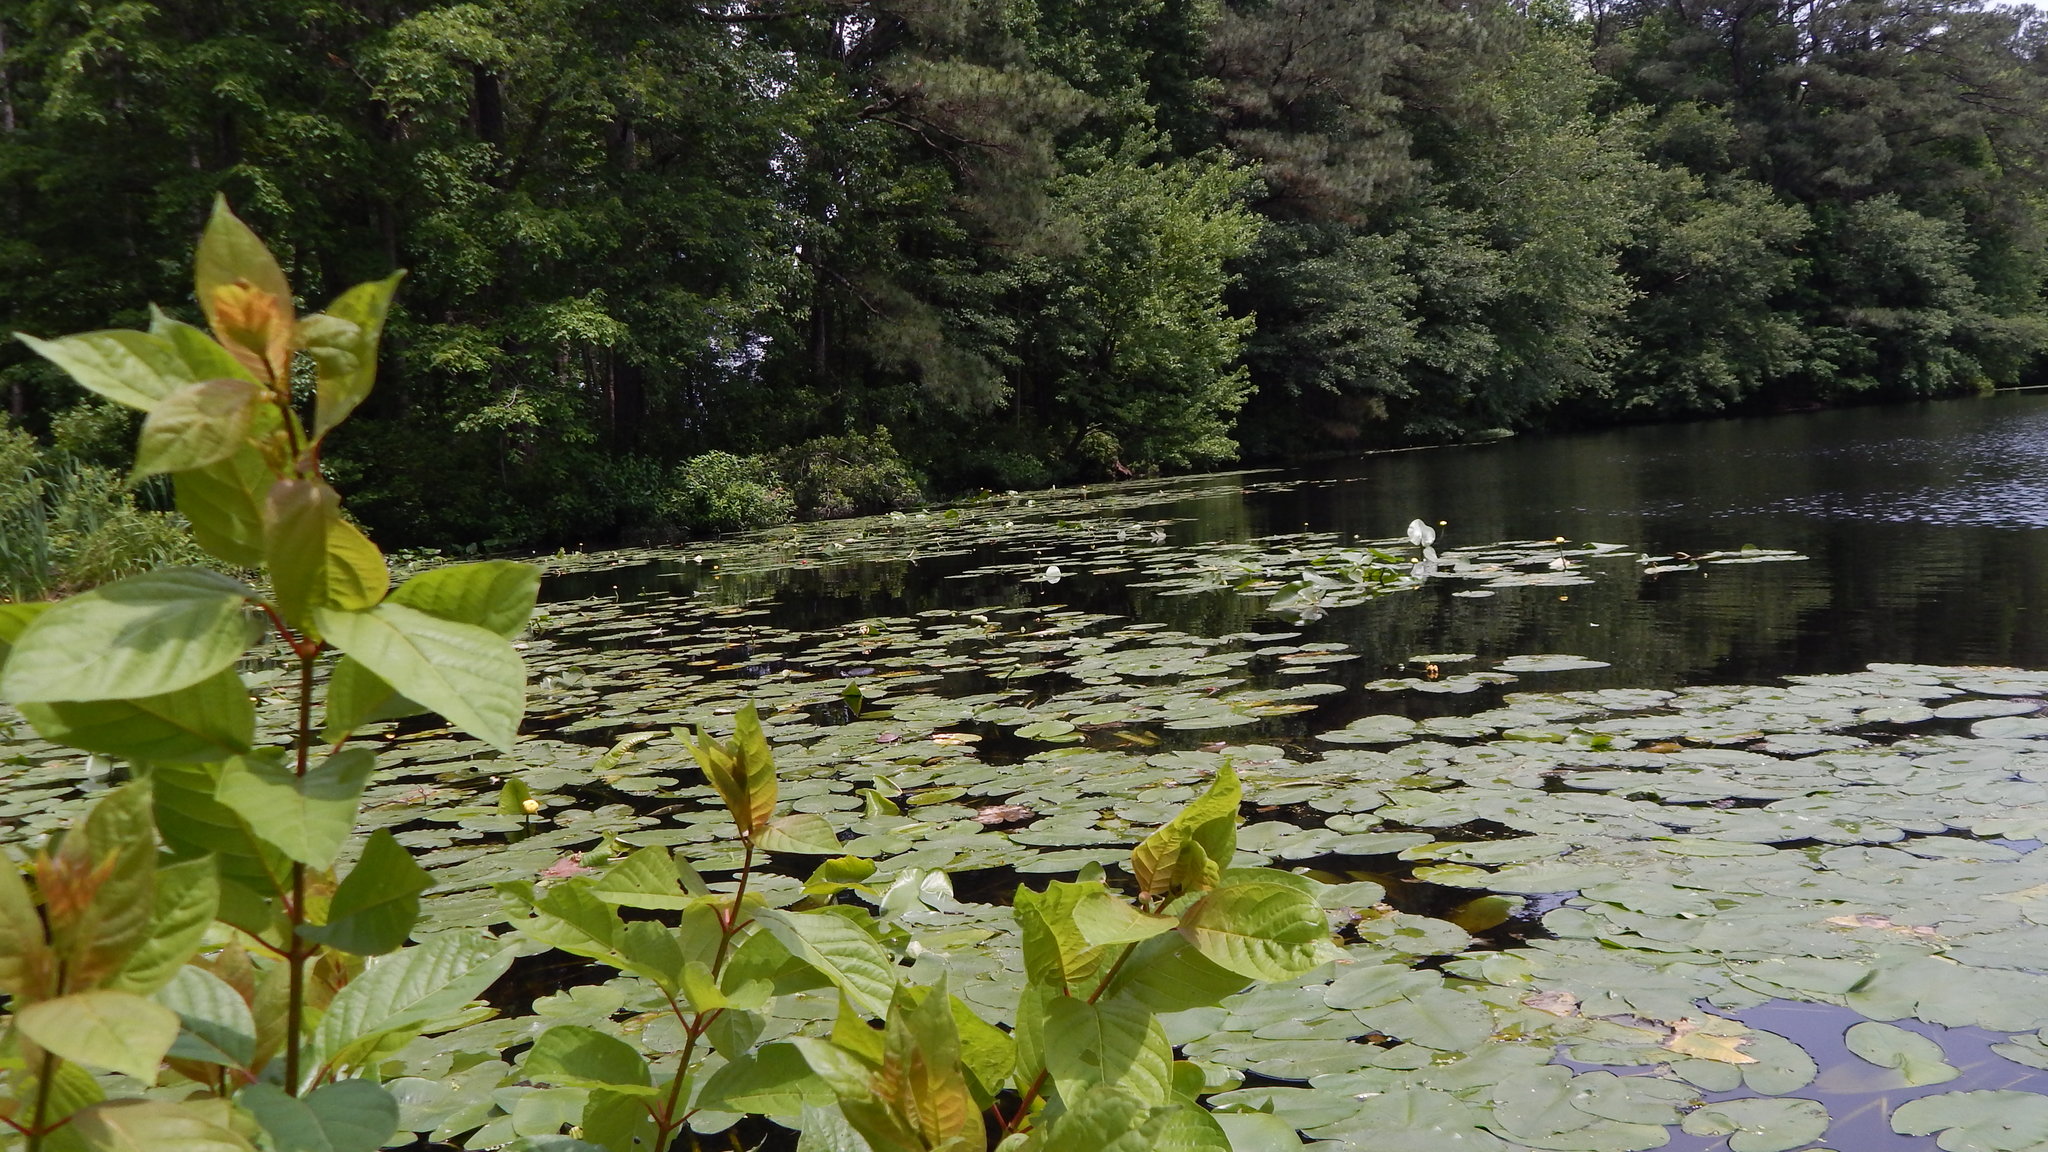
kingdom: Plantae
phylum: Tracheophyta
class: Magnoliopsida
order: Nymphaeales
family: Nymphaeaceae
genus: Nuphar
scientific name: Nuphar advena
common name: Spatter-dock
